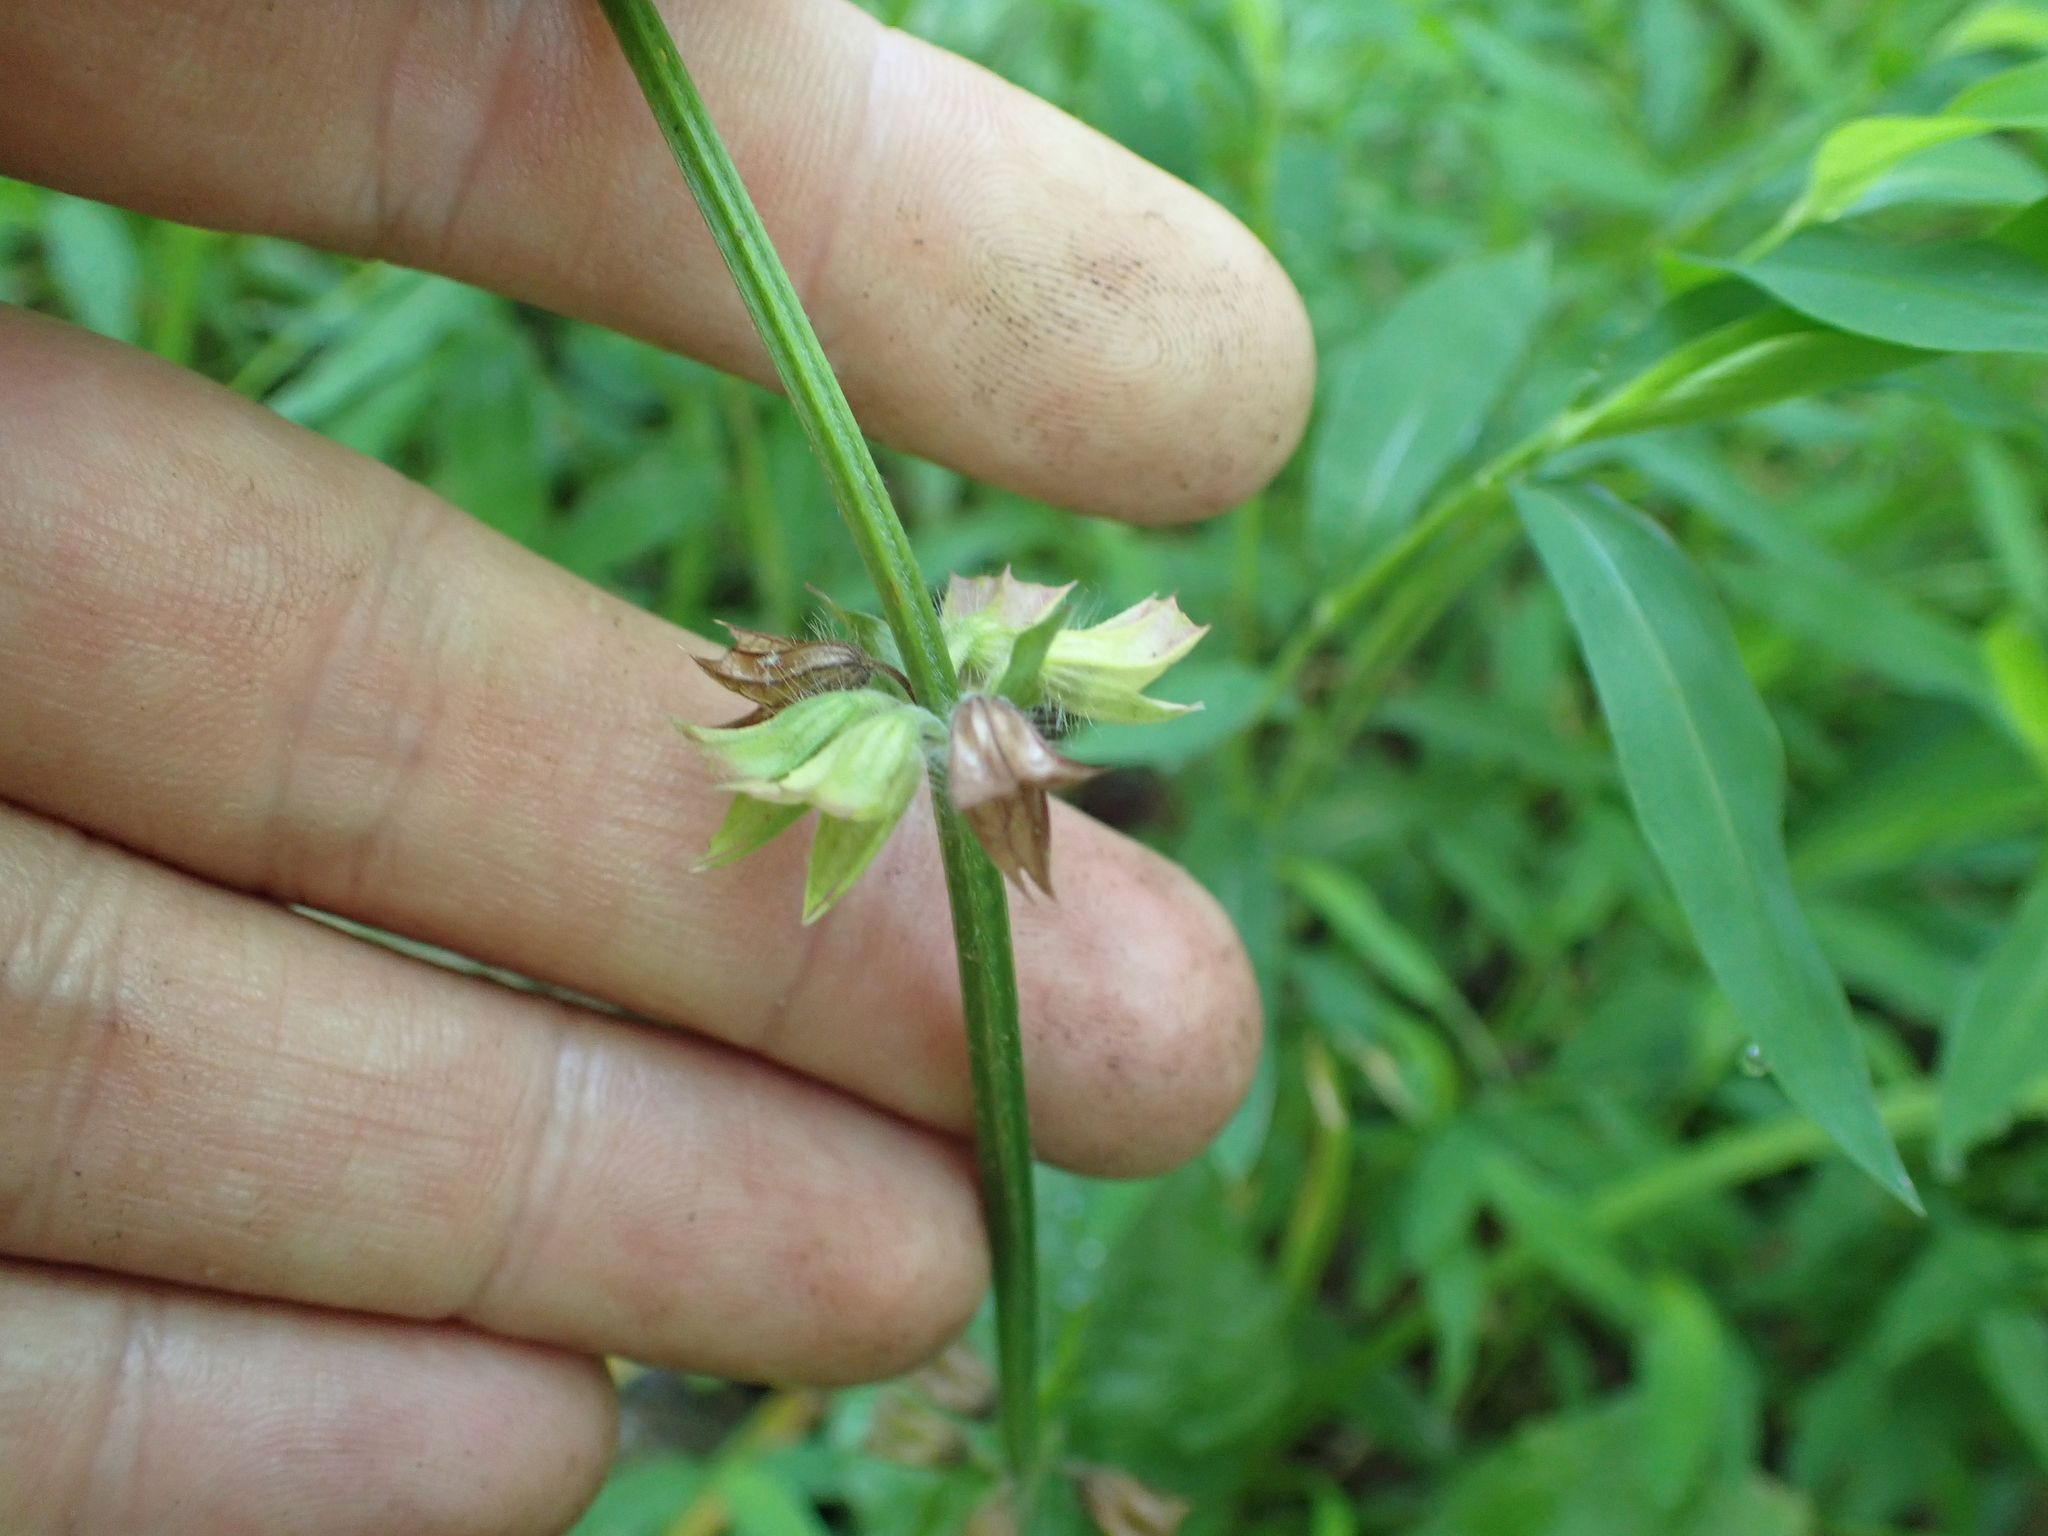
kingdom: Plantae
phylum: Tracheophyta
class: Magnoliopsida
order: Lamiales
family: Lamiaceae
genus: Salvia
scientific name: Salvia lyrata
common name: Cancerweed
